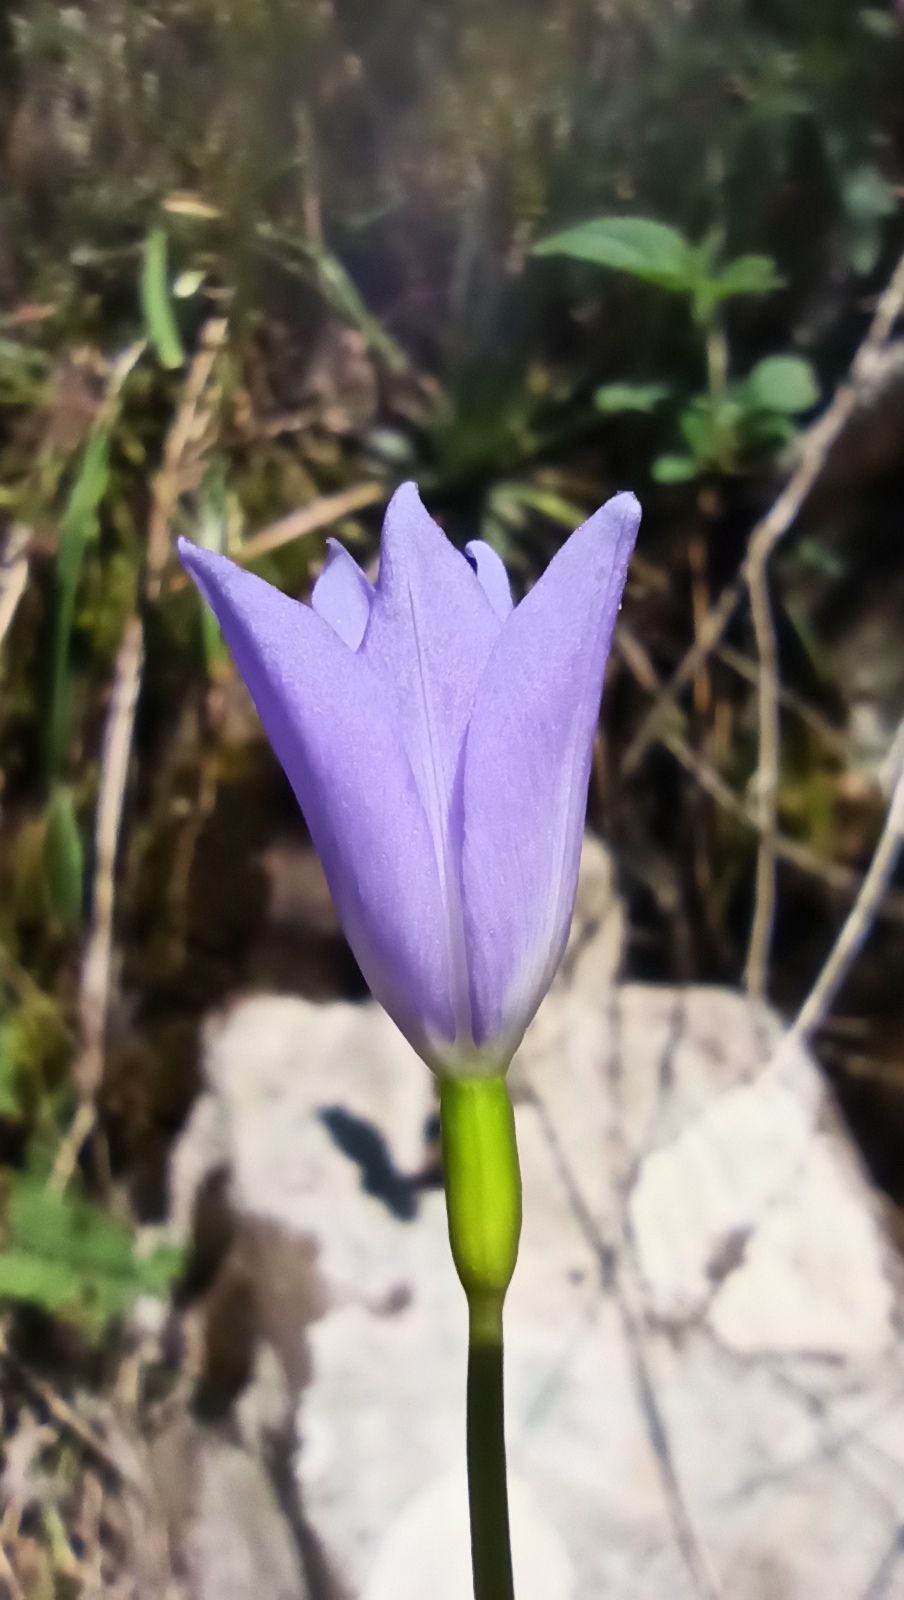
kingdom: Plantae
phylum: Tracheophyta
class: Liliopsida
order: Asparagales
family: Iridaceae
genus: Gelasine
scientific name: Gelasine elongata
